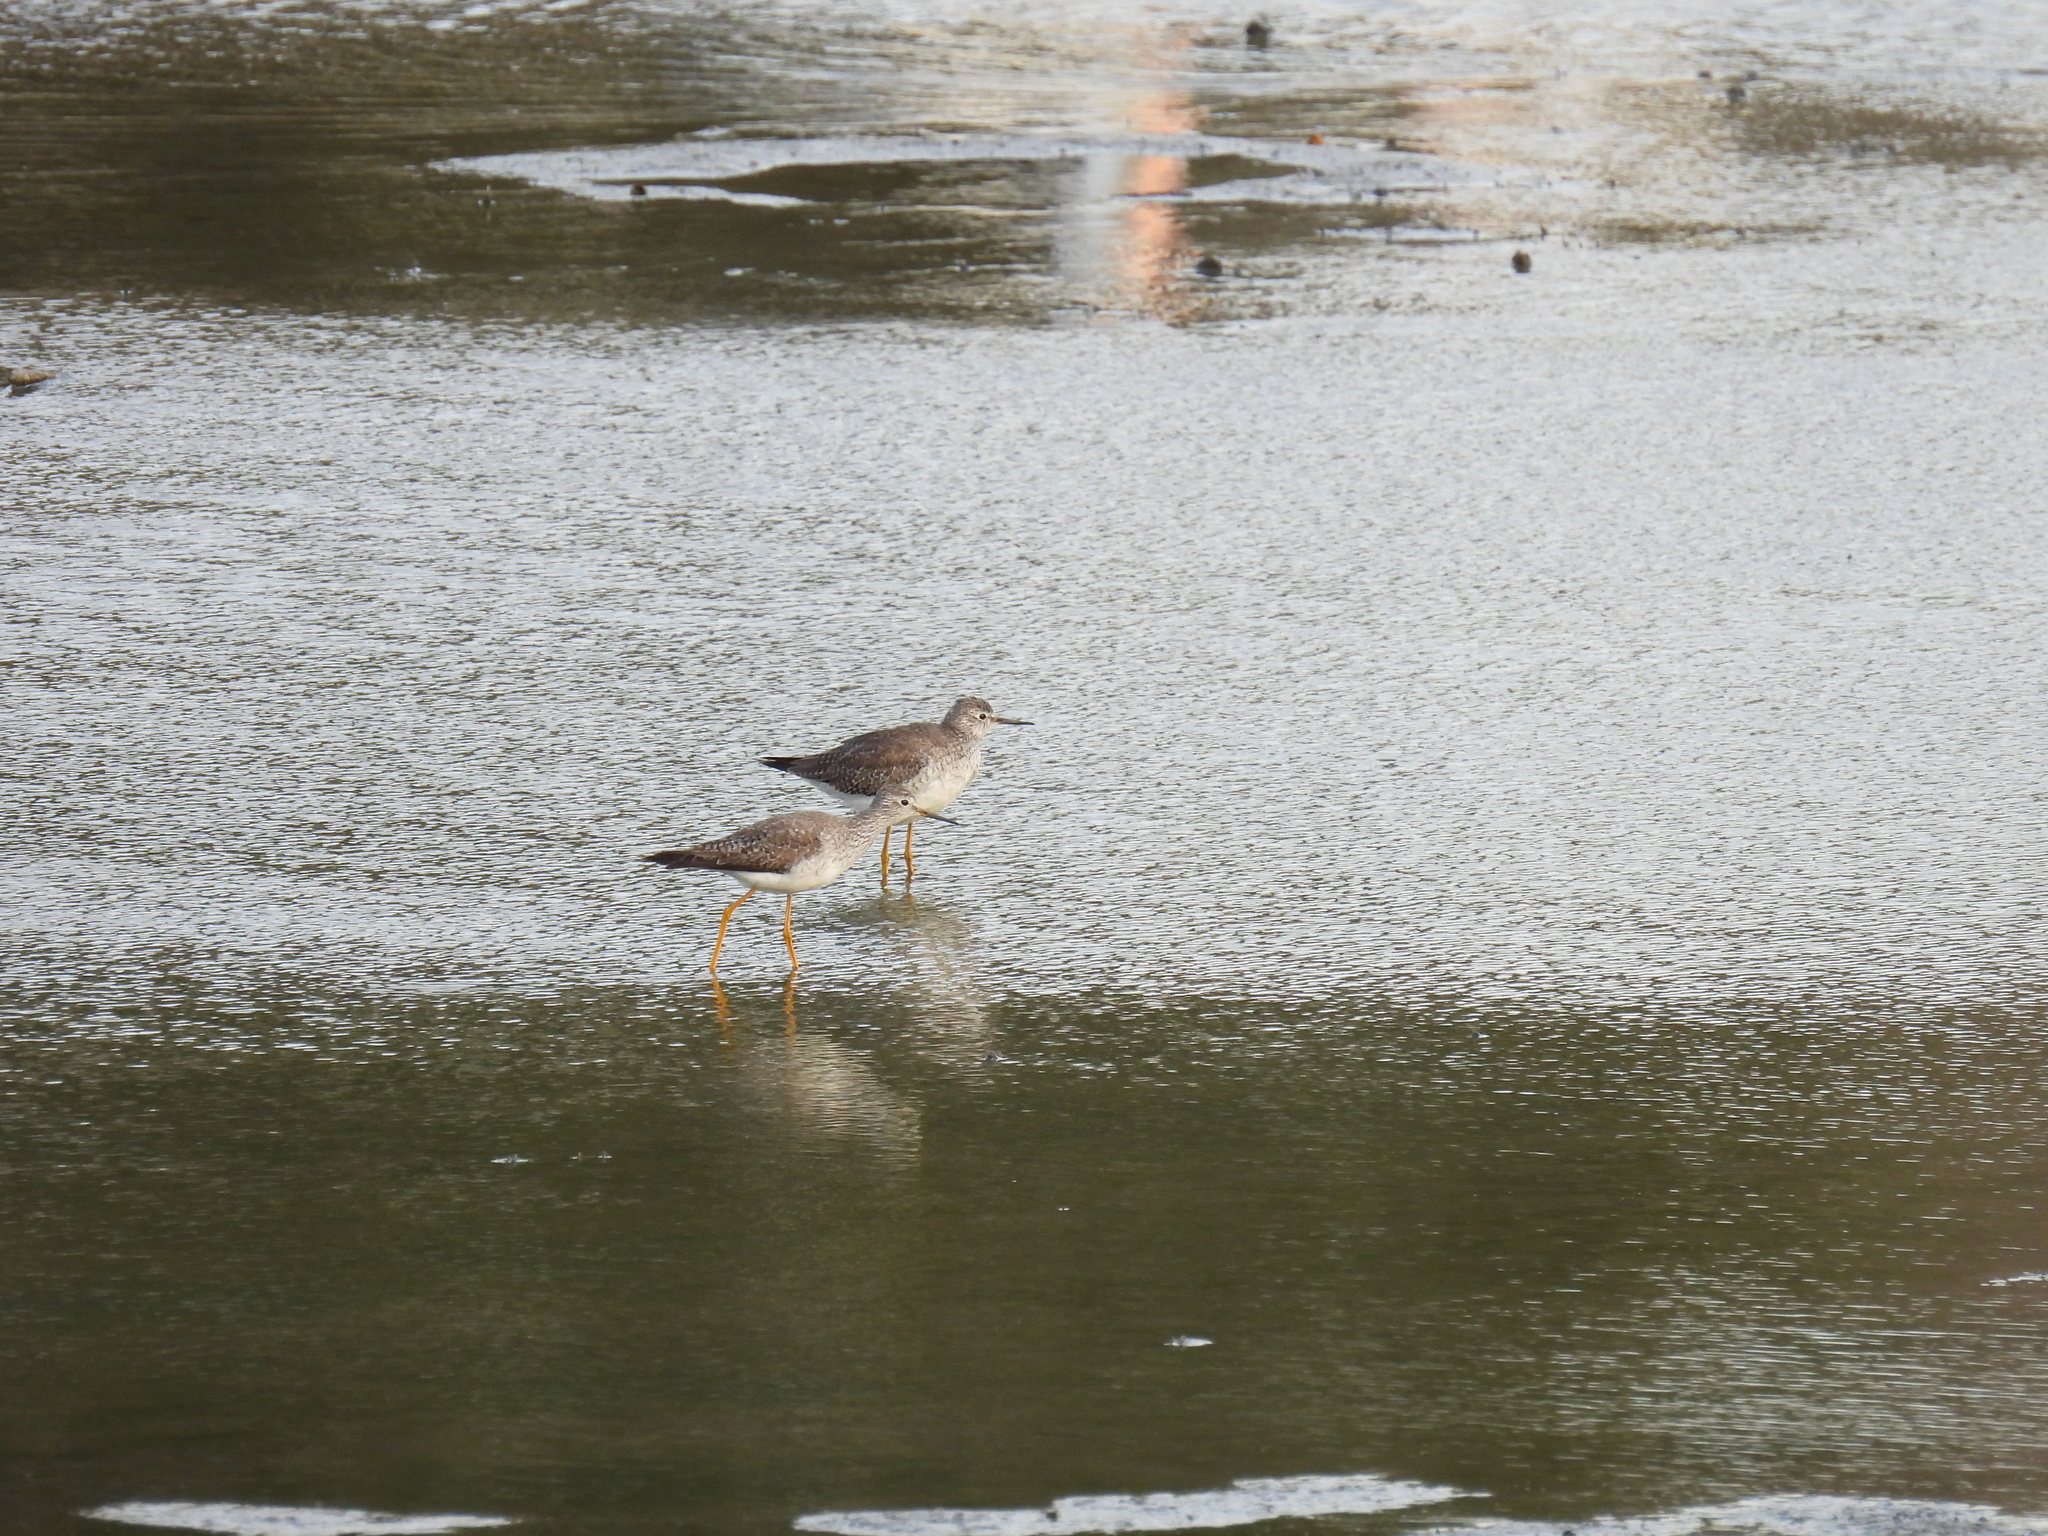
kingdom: Animalia
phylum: Chordata
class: Aves
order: Charadriiformes
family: Scolopacidae
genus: Tringa
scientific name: Tringa flavipes
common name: Lesser yellowlegs
